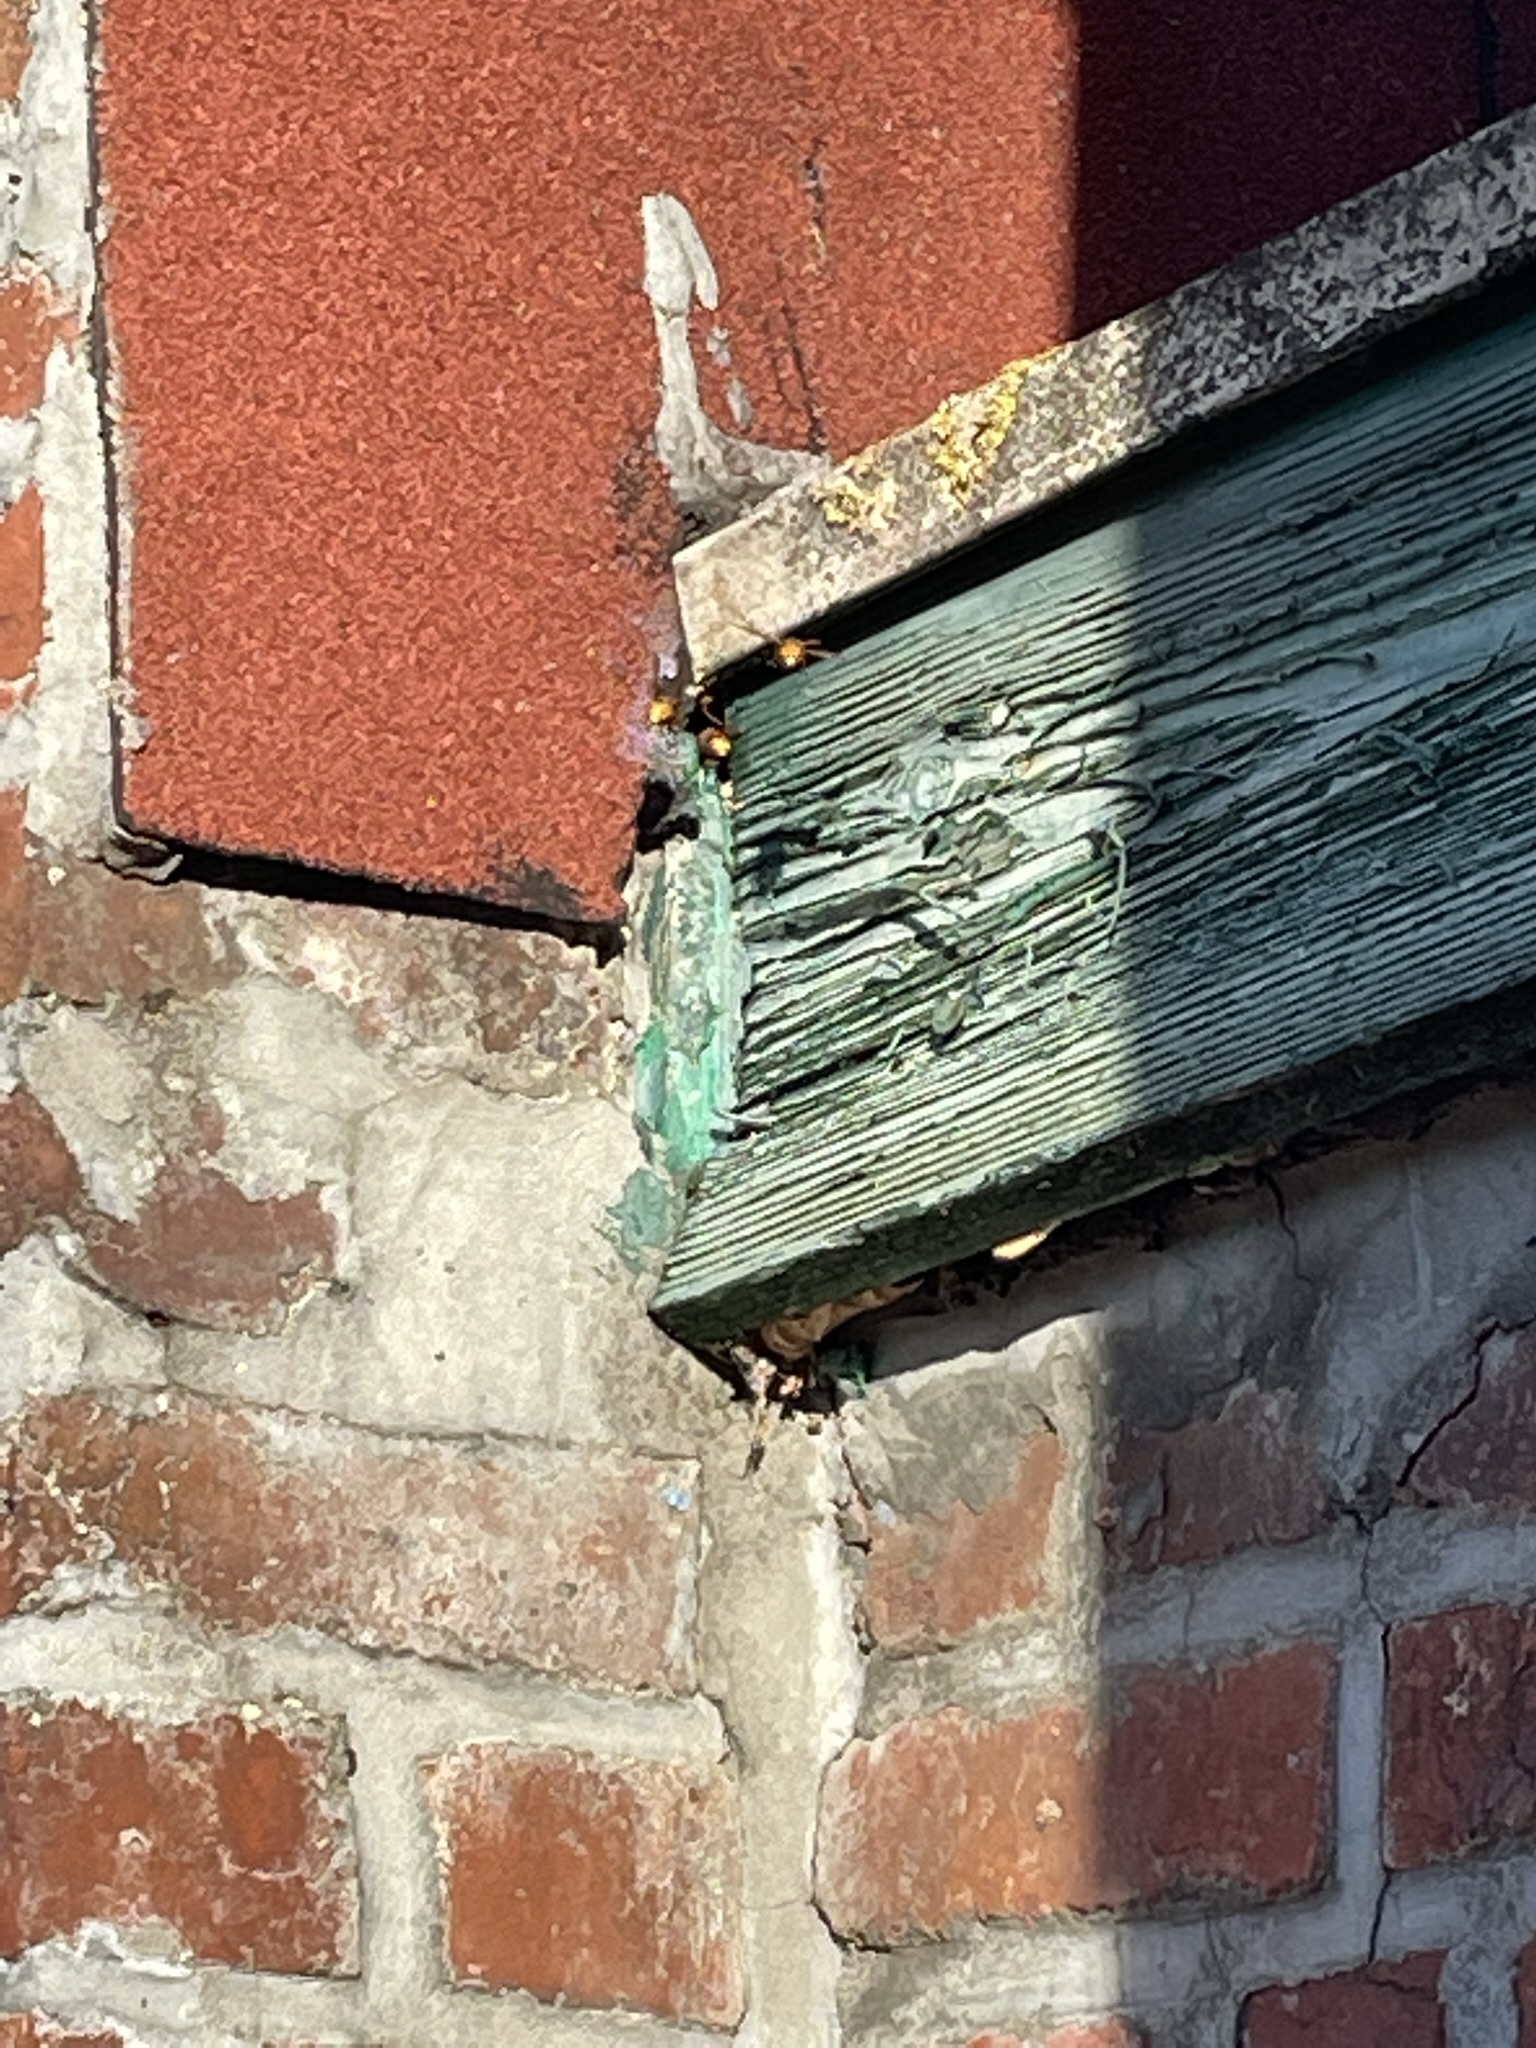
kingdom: Animalia
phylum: Arthropoda
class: Insecta
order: Hymenoptera
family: Vespidae
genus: Vespa
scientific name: Vespa crabro
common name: Hornet
